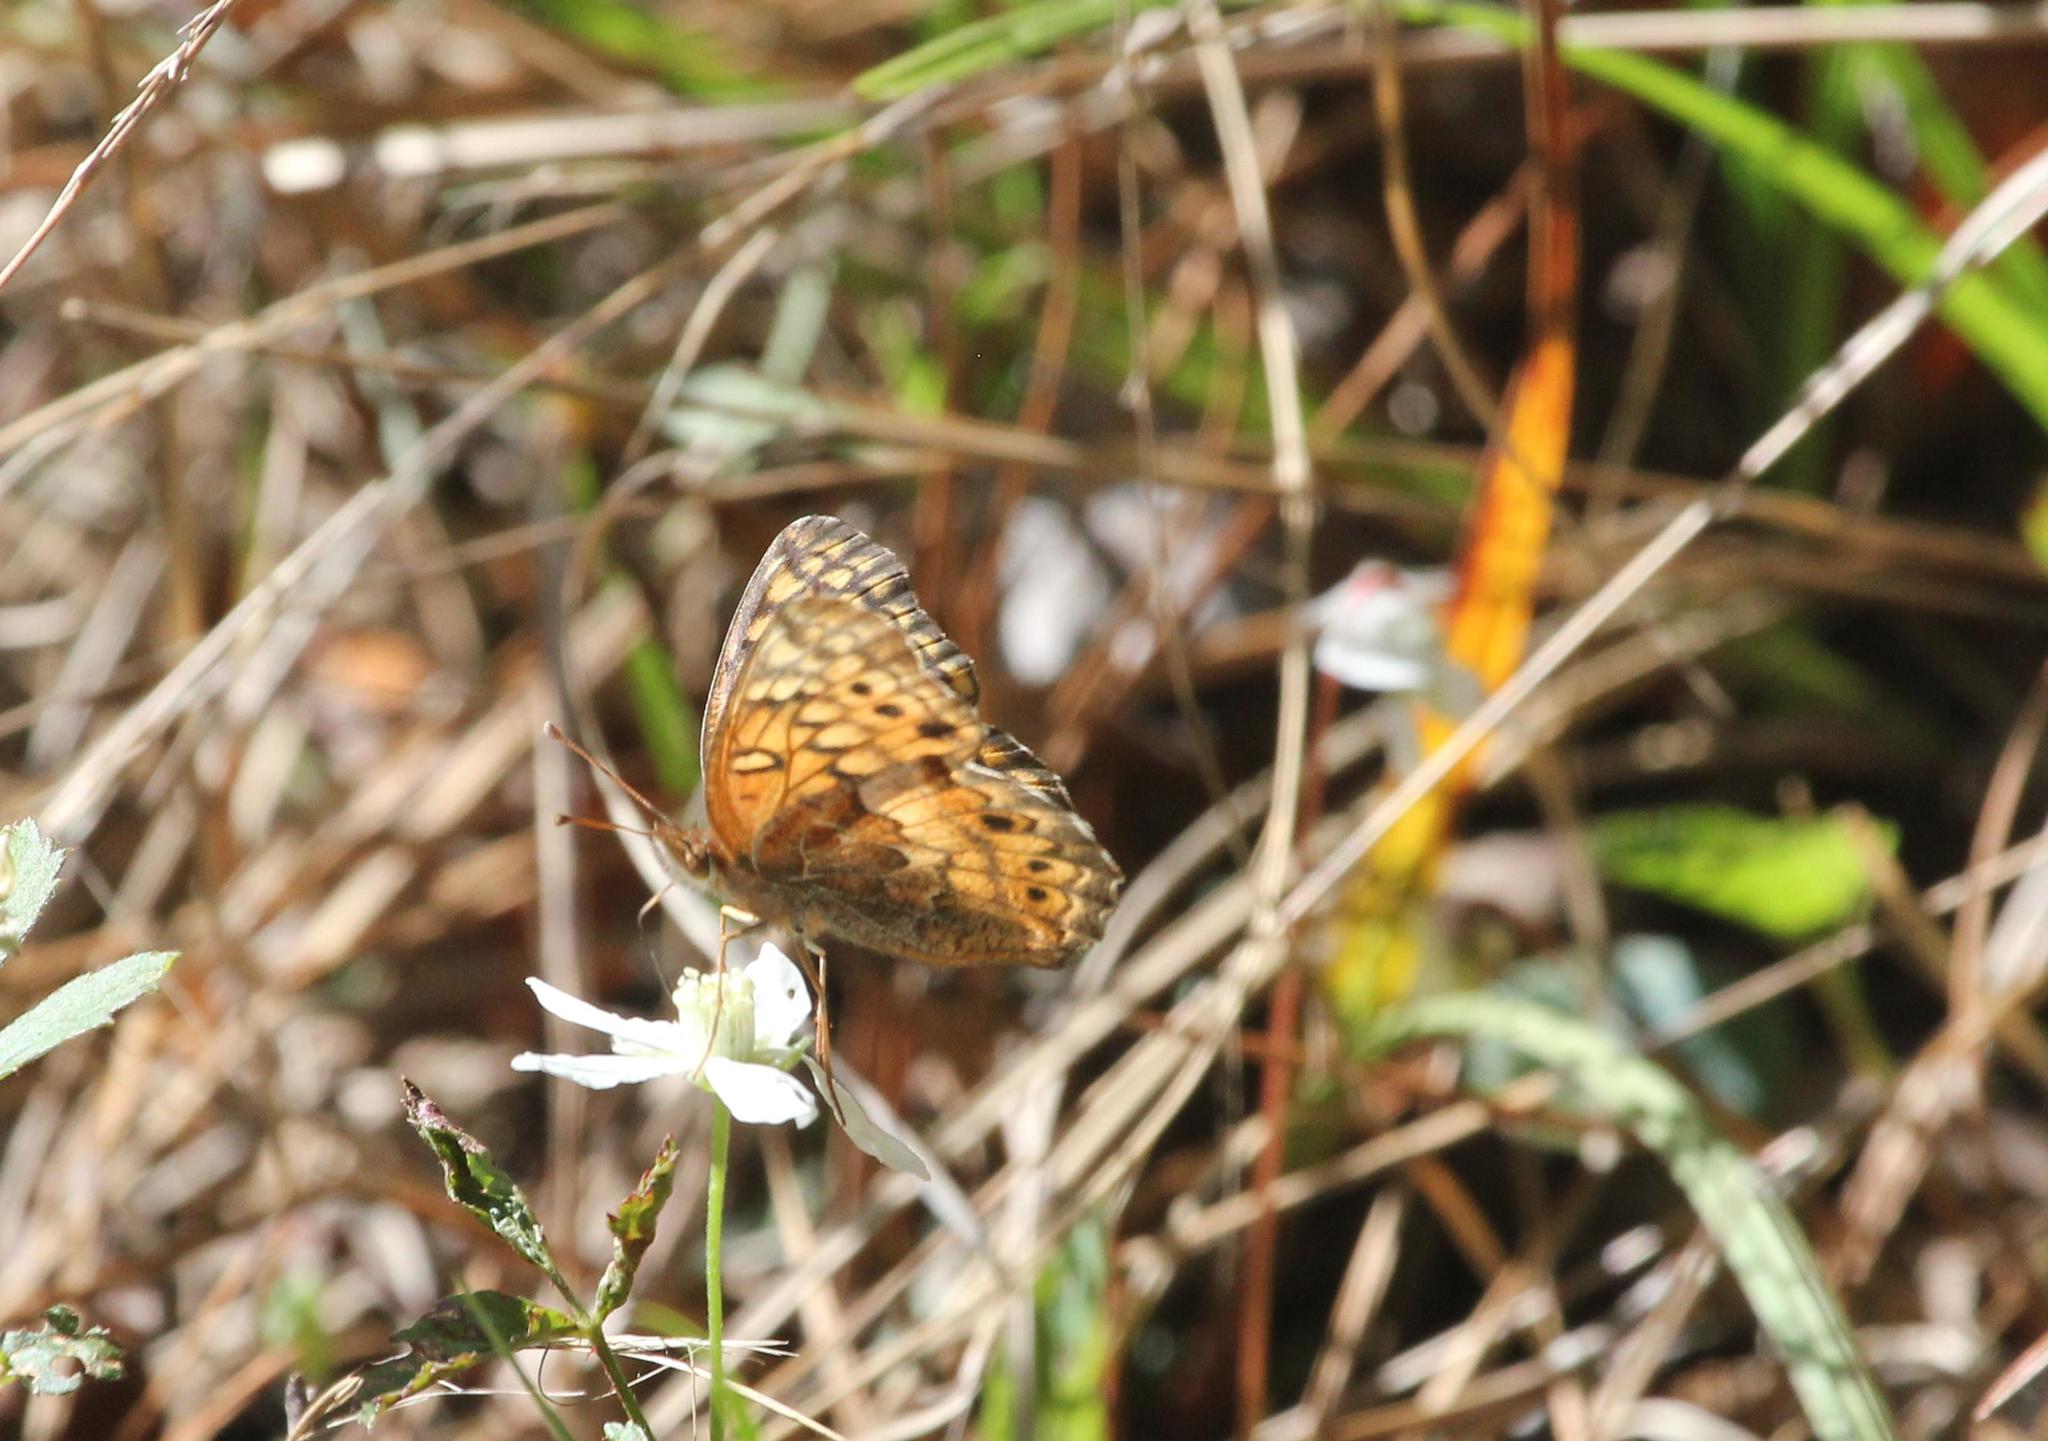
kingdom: Animalia
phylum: Arthropoda
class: Insecta
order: Lepidoptera
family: Nymphalidae
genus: Euptoieta
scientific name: Euptoieta claudia
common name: Variegated fritillary
